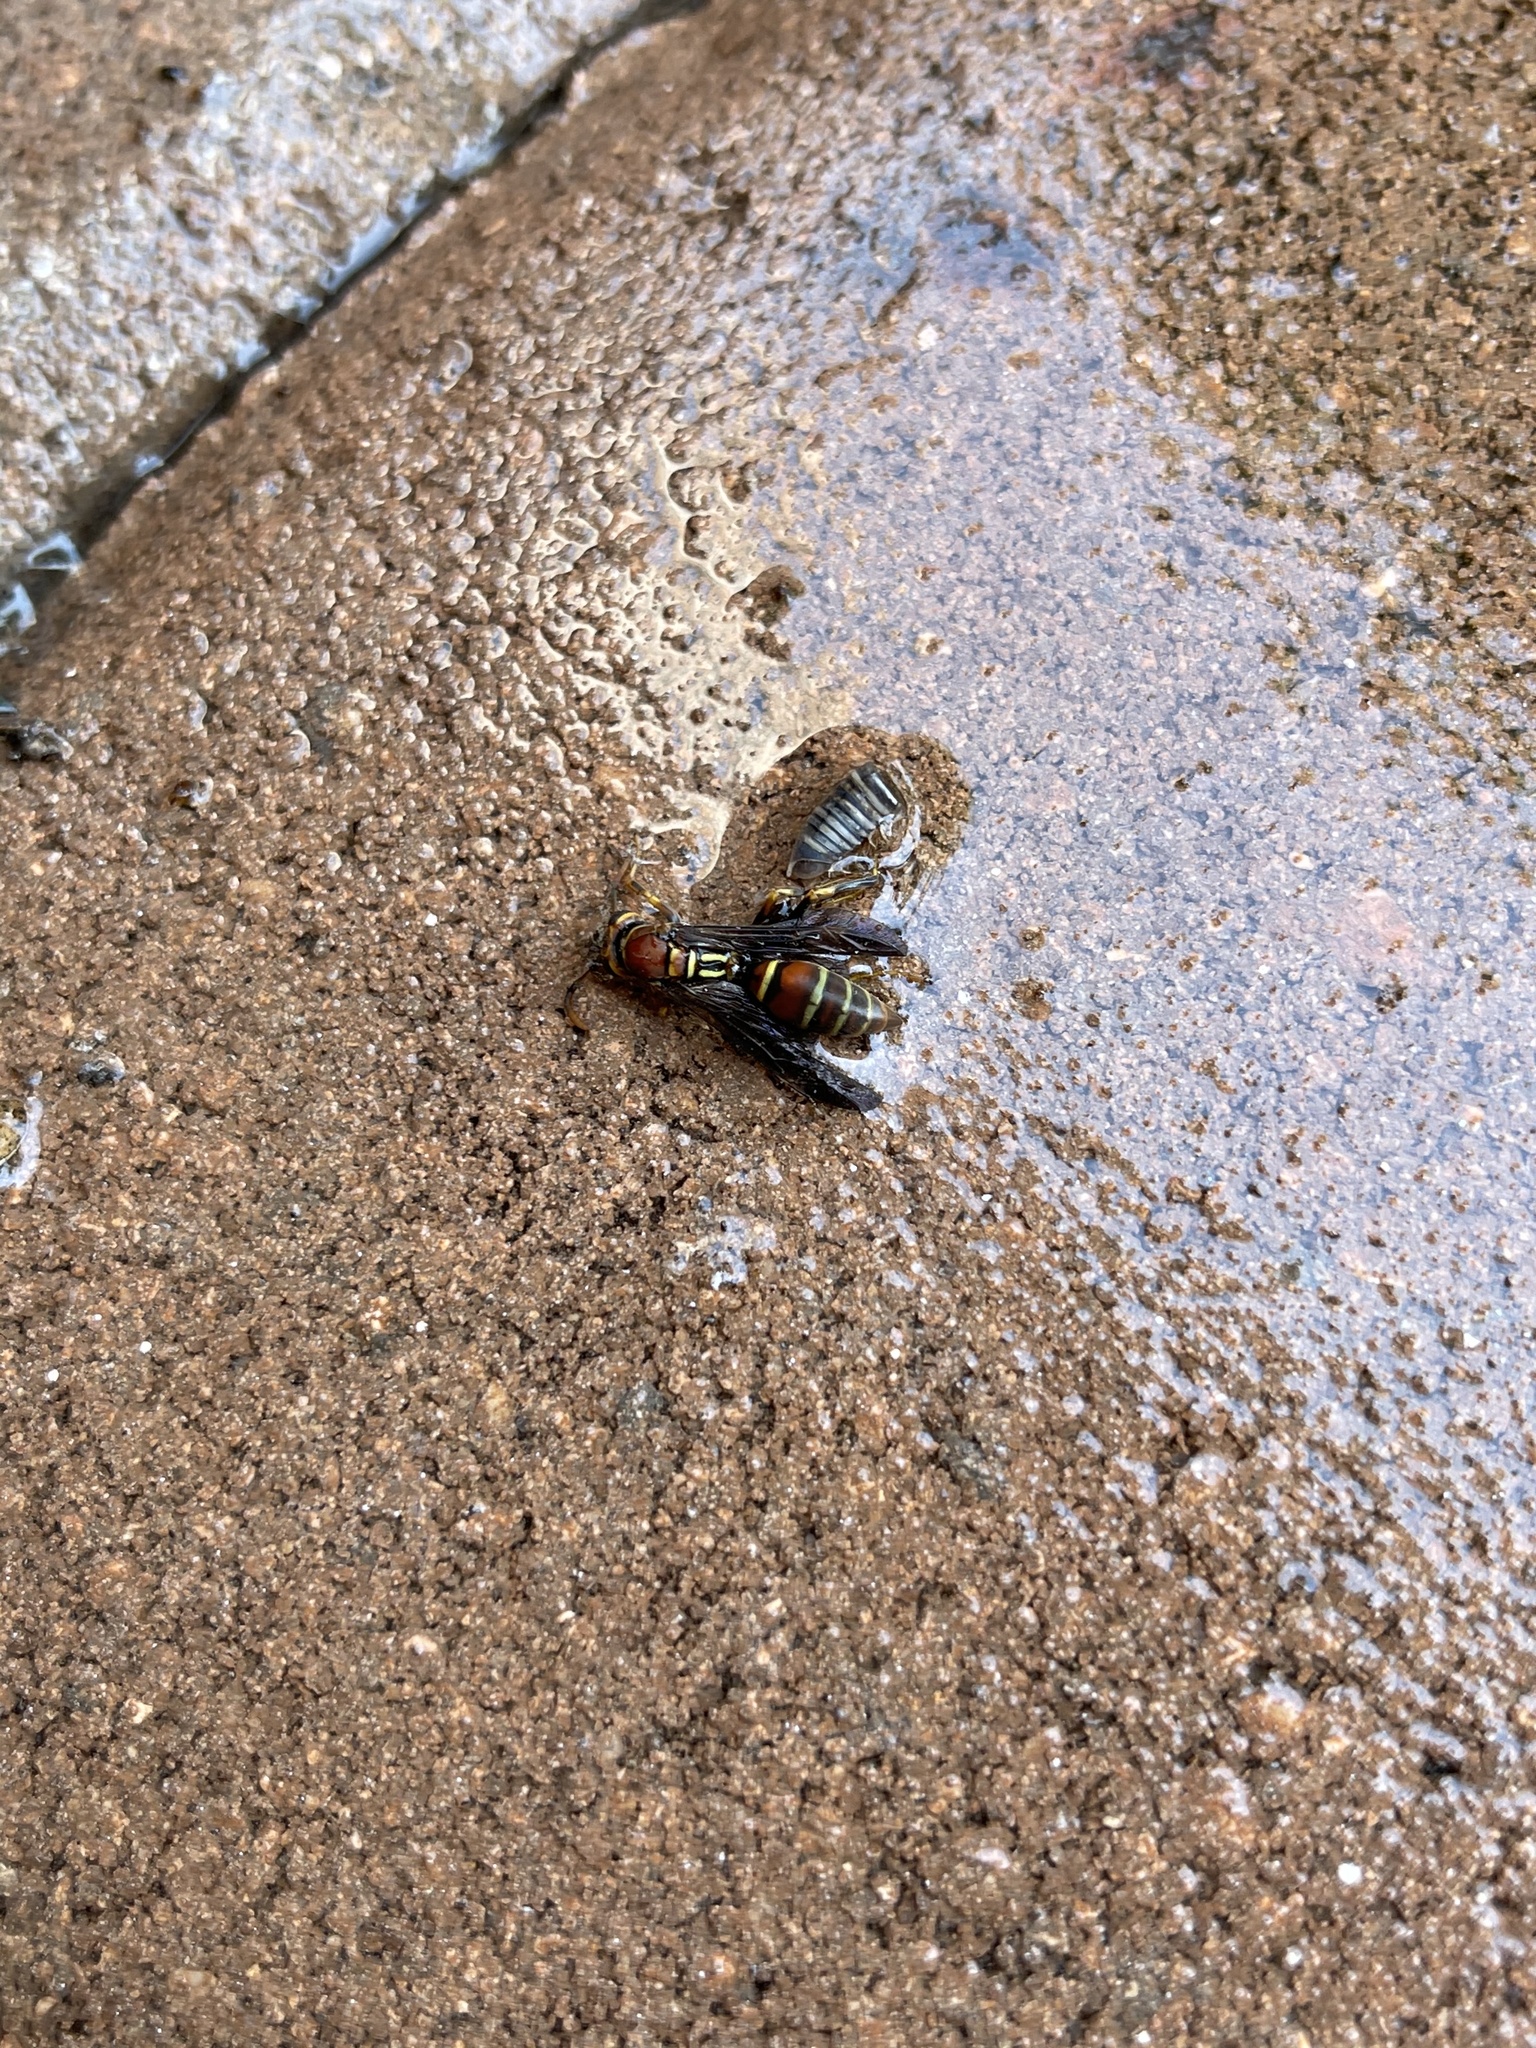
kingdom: Animalia
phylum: Arthropoda
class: Insecta
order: Hymenoptera
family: Eumenidae
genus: Polistes
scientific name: Polistes dorsalis
